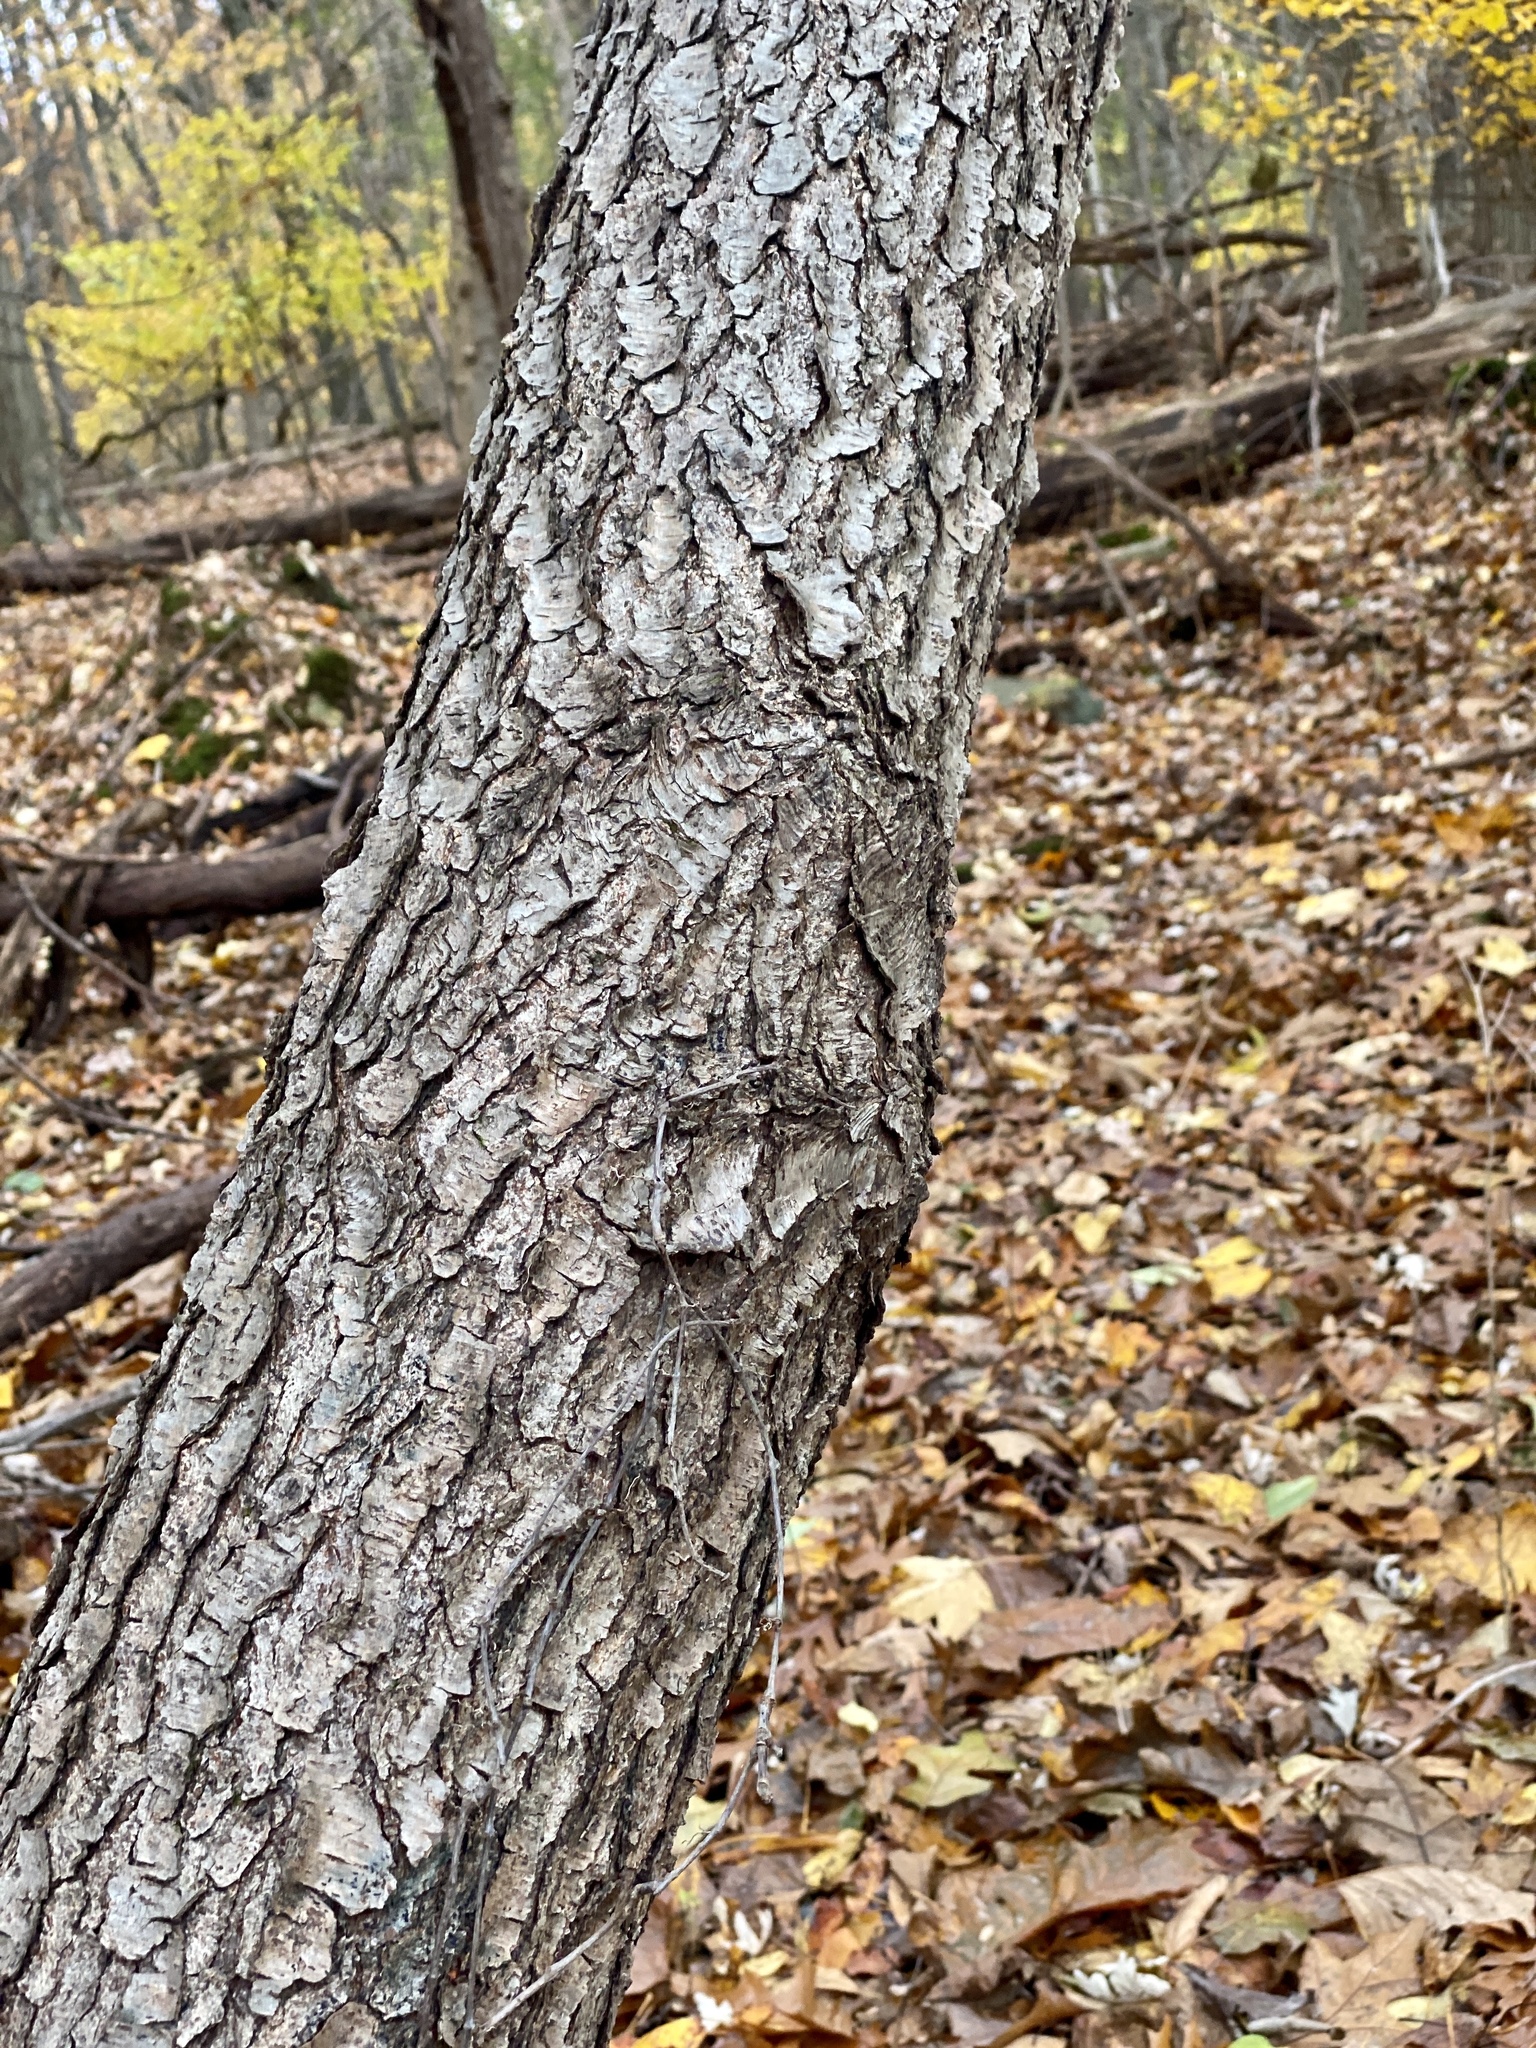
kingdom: Plantae
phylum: Tracheophyta
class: Magnoliopsida
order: Rosales
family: Rosaceae
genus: Prunus
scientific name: Prunus serotina
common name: Black cherry
